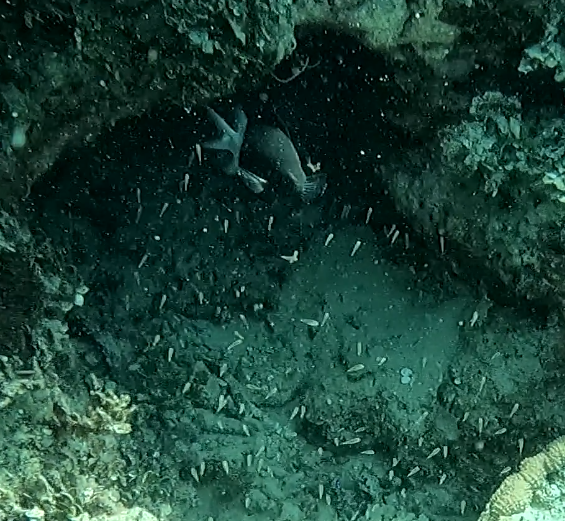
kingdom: Animalia
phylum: Chordata
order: Perciformes
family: Pomacentridae
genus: Acanthochromis
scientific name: Acanthochromis polyacanthus
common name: Spiny chromis
